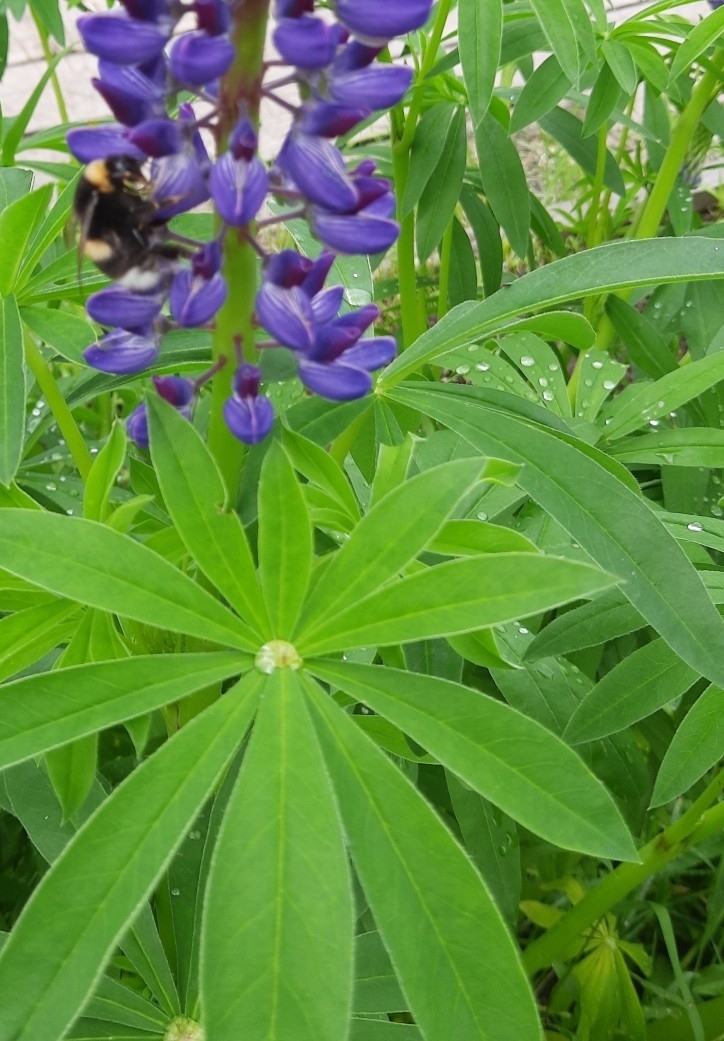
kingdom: Animalia
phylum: Arthropoda
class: Insecta
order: Hymenoptera
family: Apidae
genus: Bombus
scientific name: Bombus
